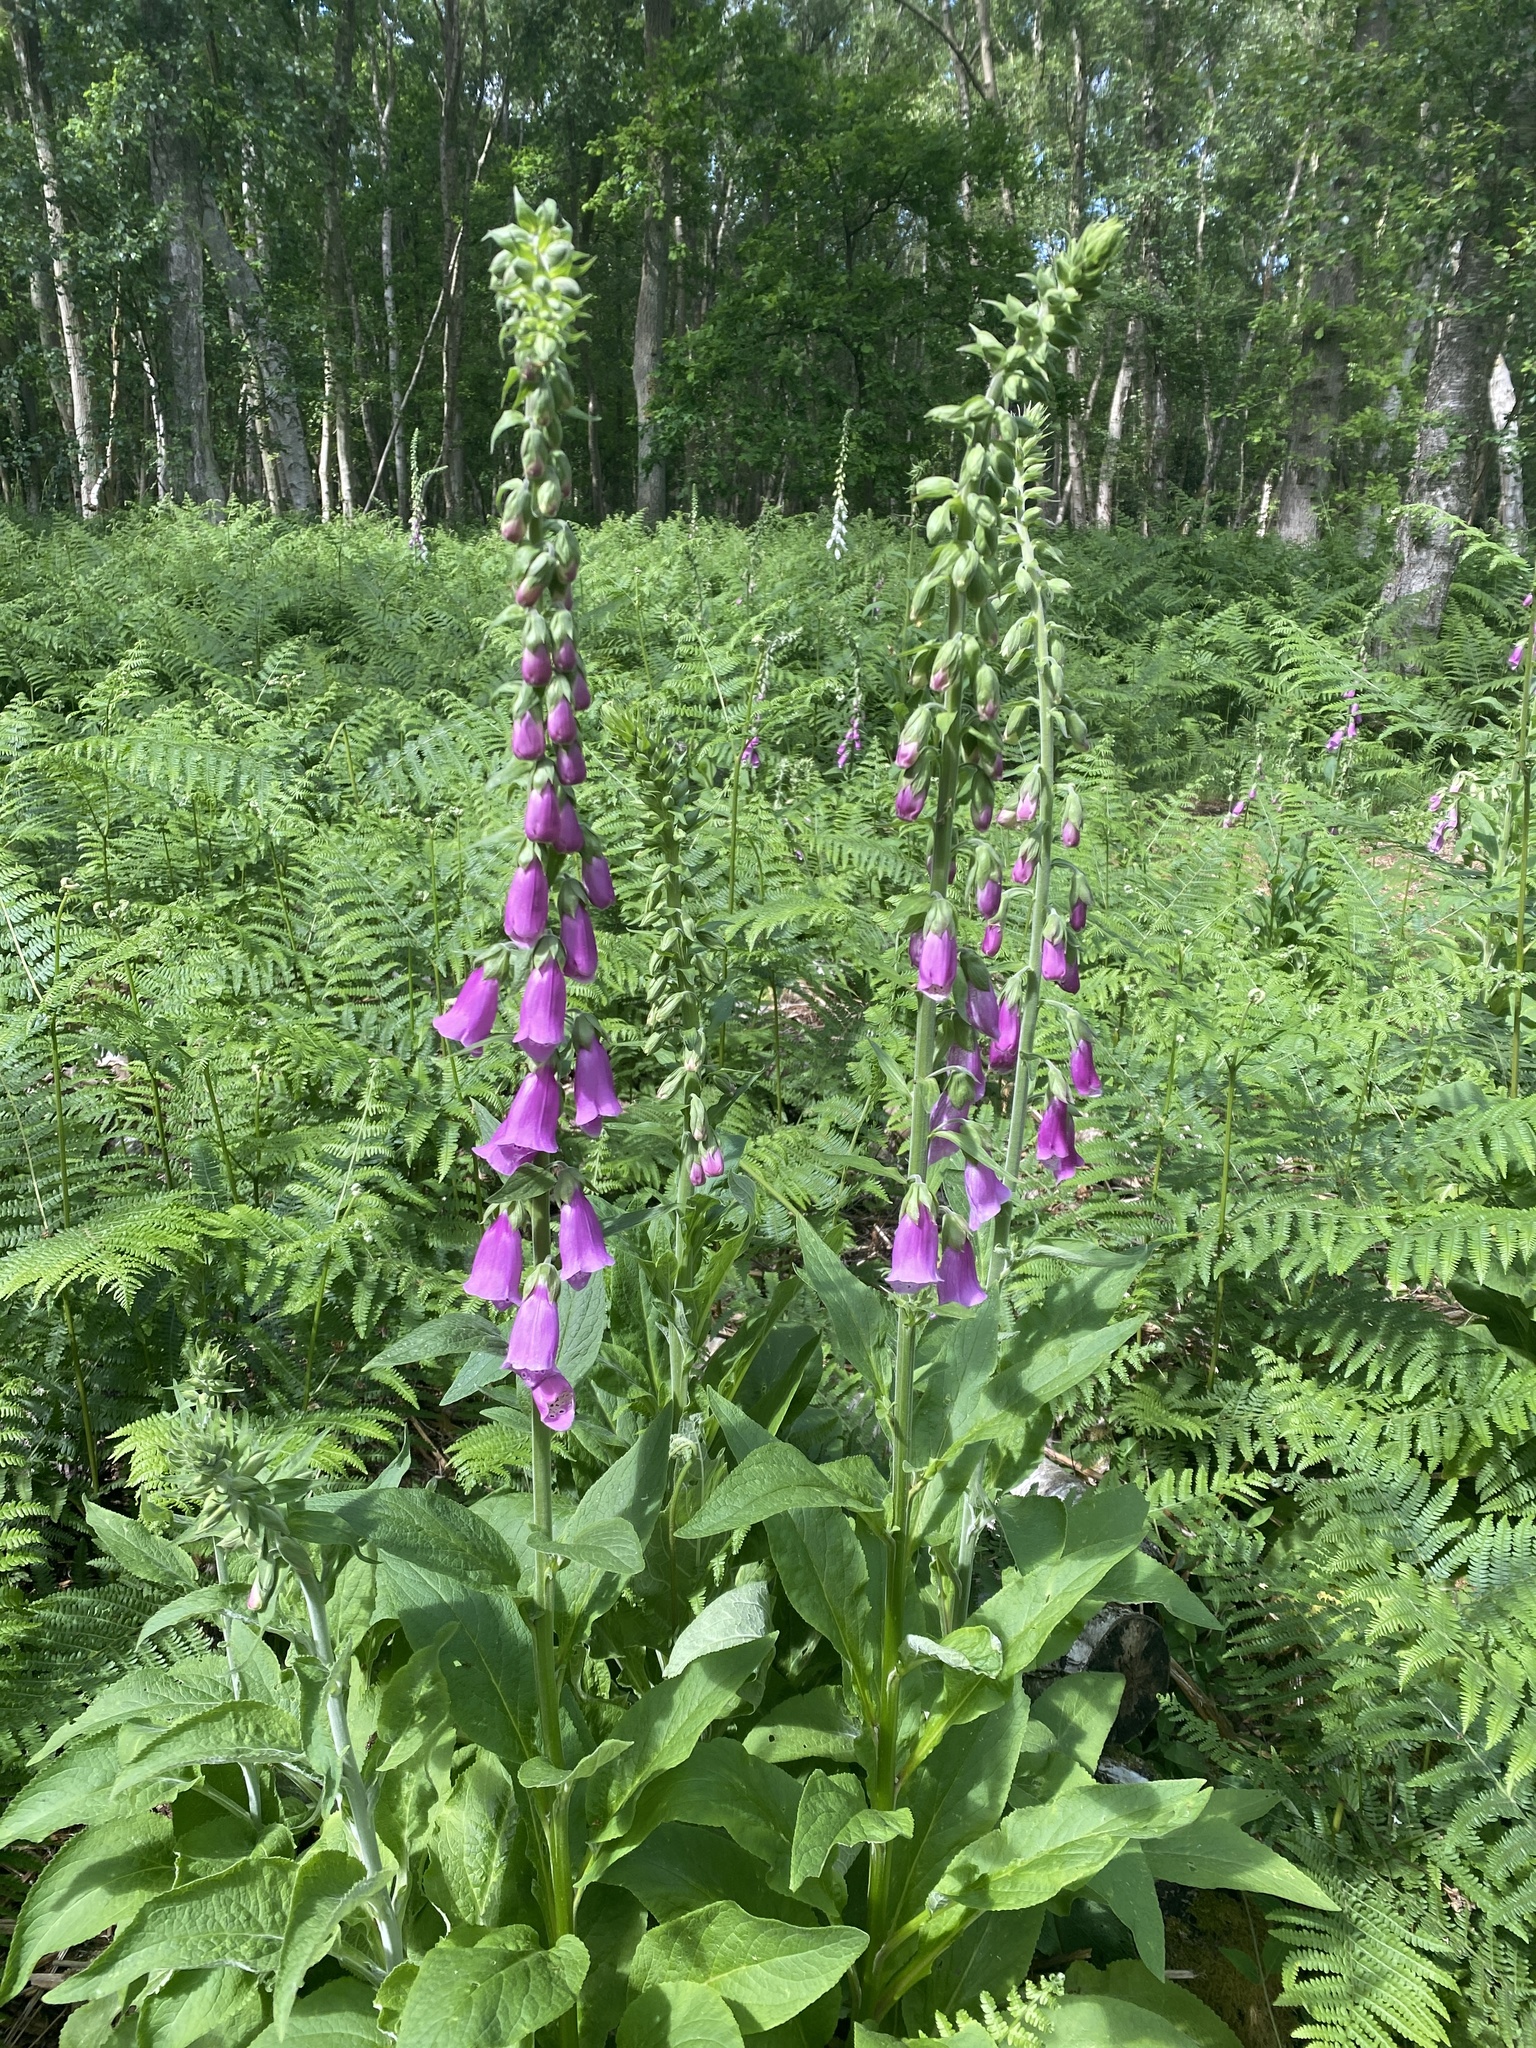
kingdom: Plantae
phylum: Tracheophyta
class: Magnoliopsida
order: Lamiales
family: Plantaginaceae
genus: Digitalis
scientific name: Digitalis purpurea
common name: Foxglove
